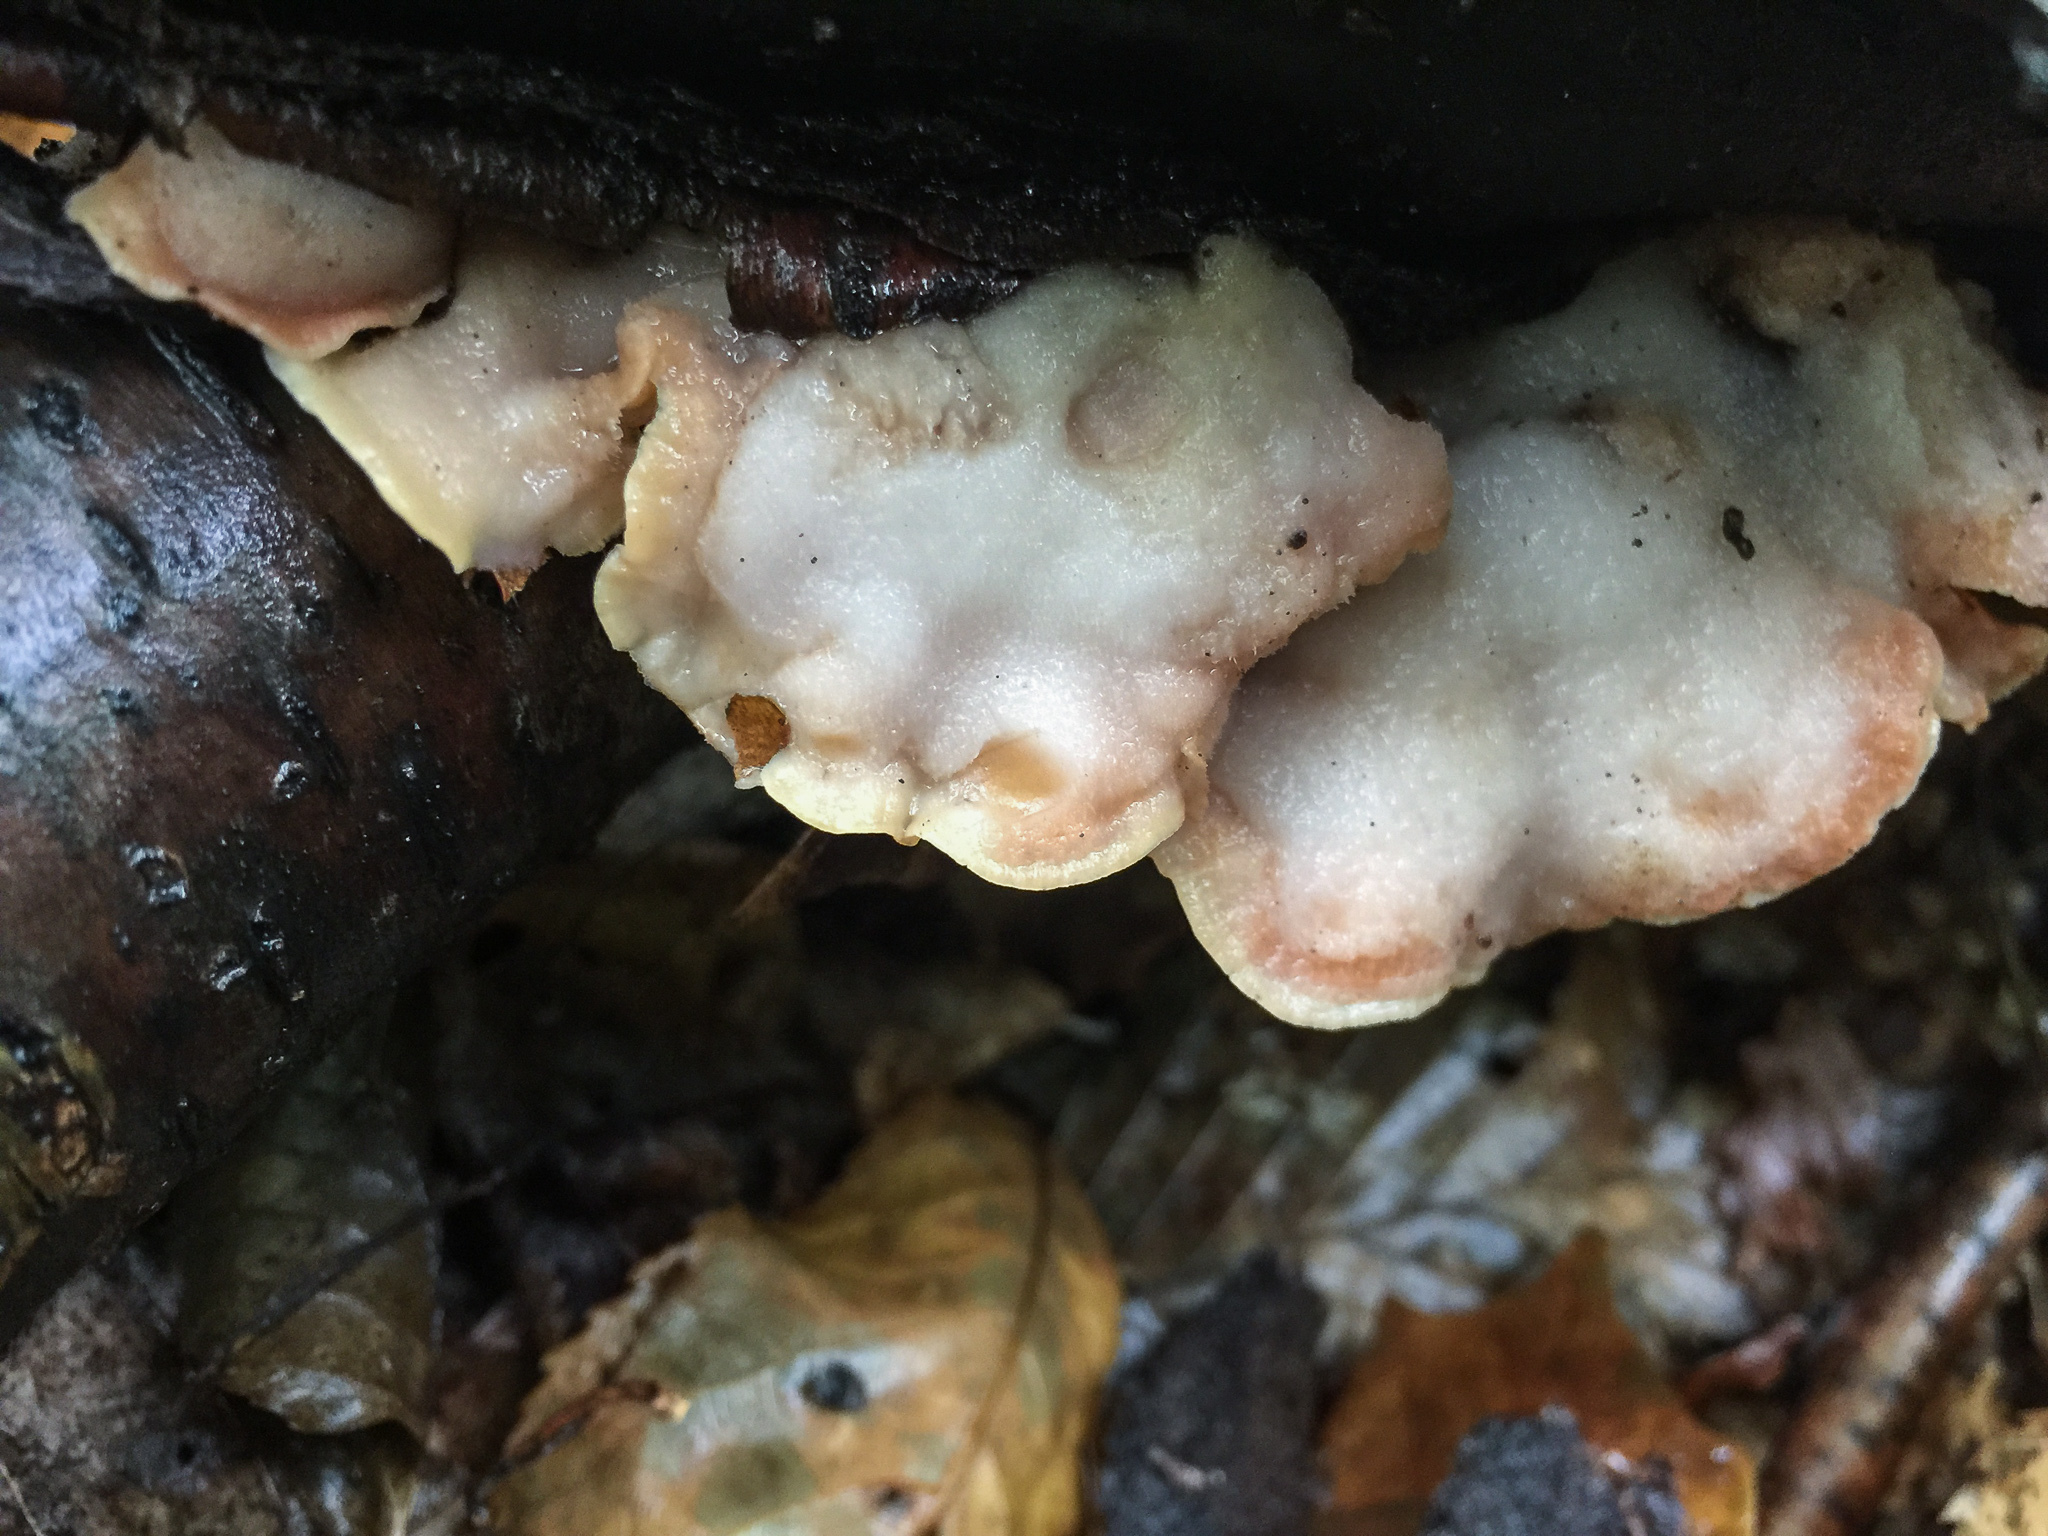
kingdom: Fungi
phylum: Basidiomycota
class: Agaricomycetes
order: Polyporales
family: Meruliaceae
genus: Phlebia
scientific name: Phlebia tremellosa
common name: Jelly rot
